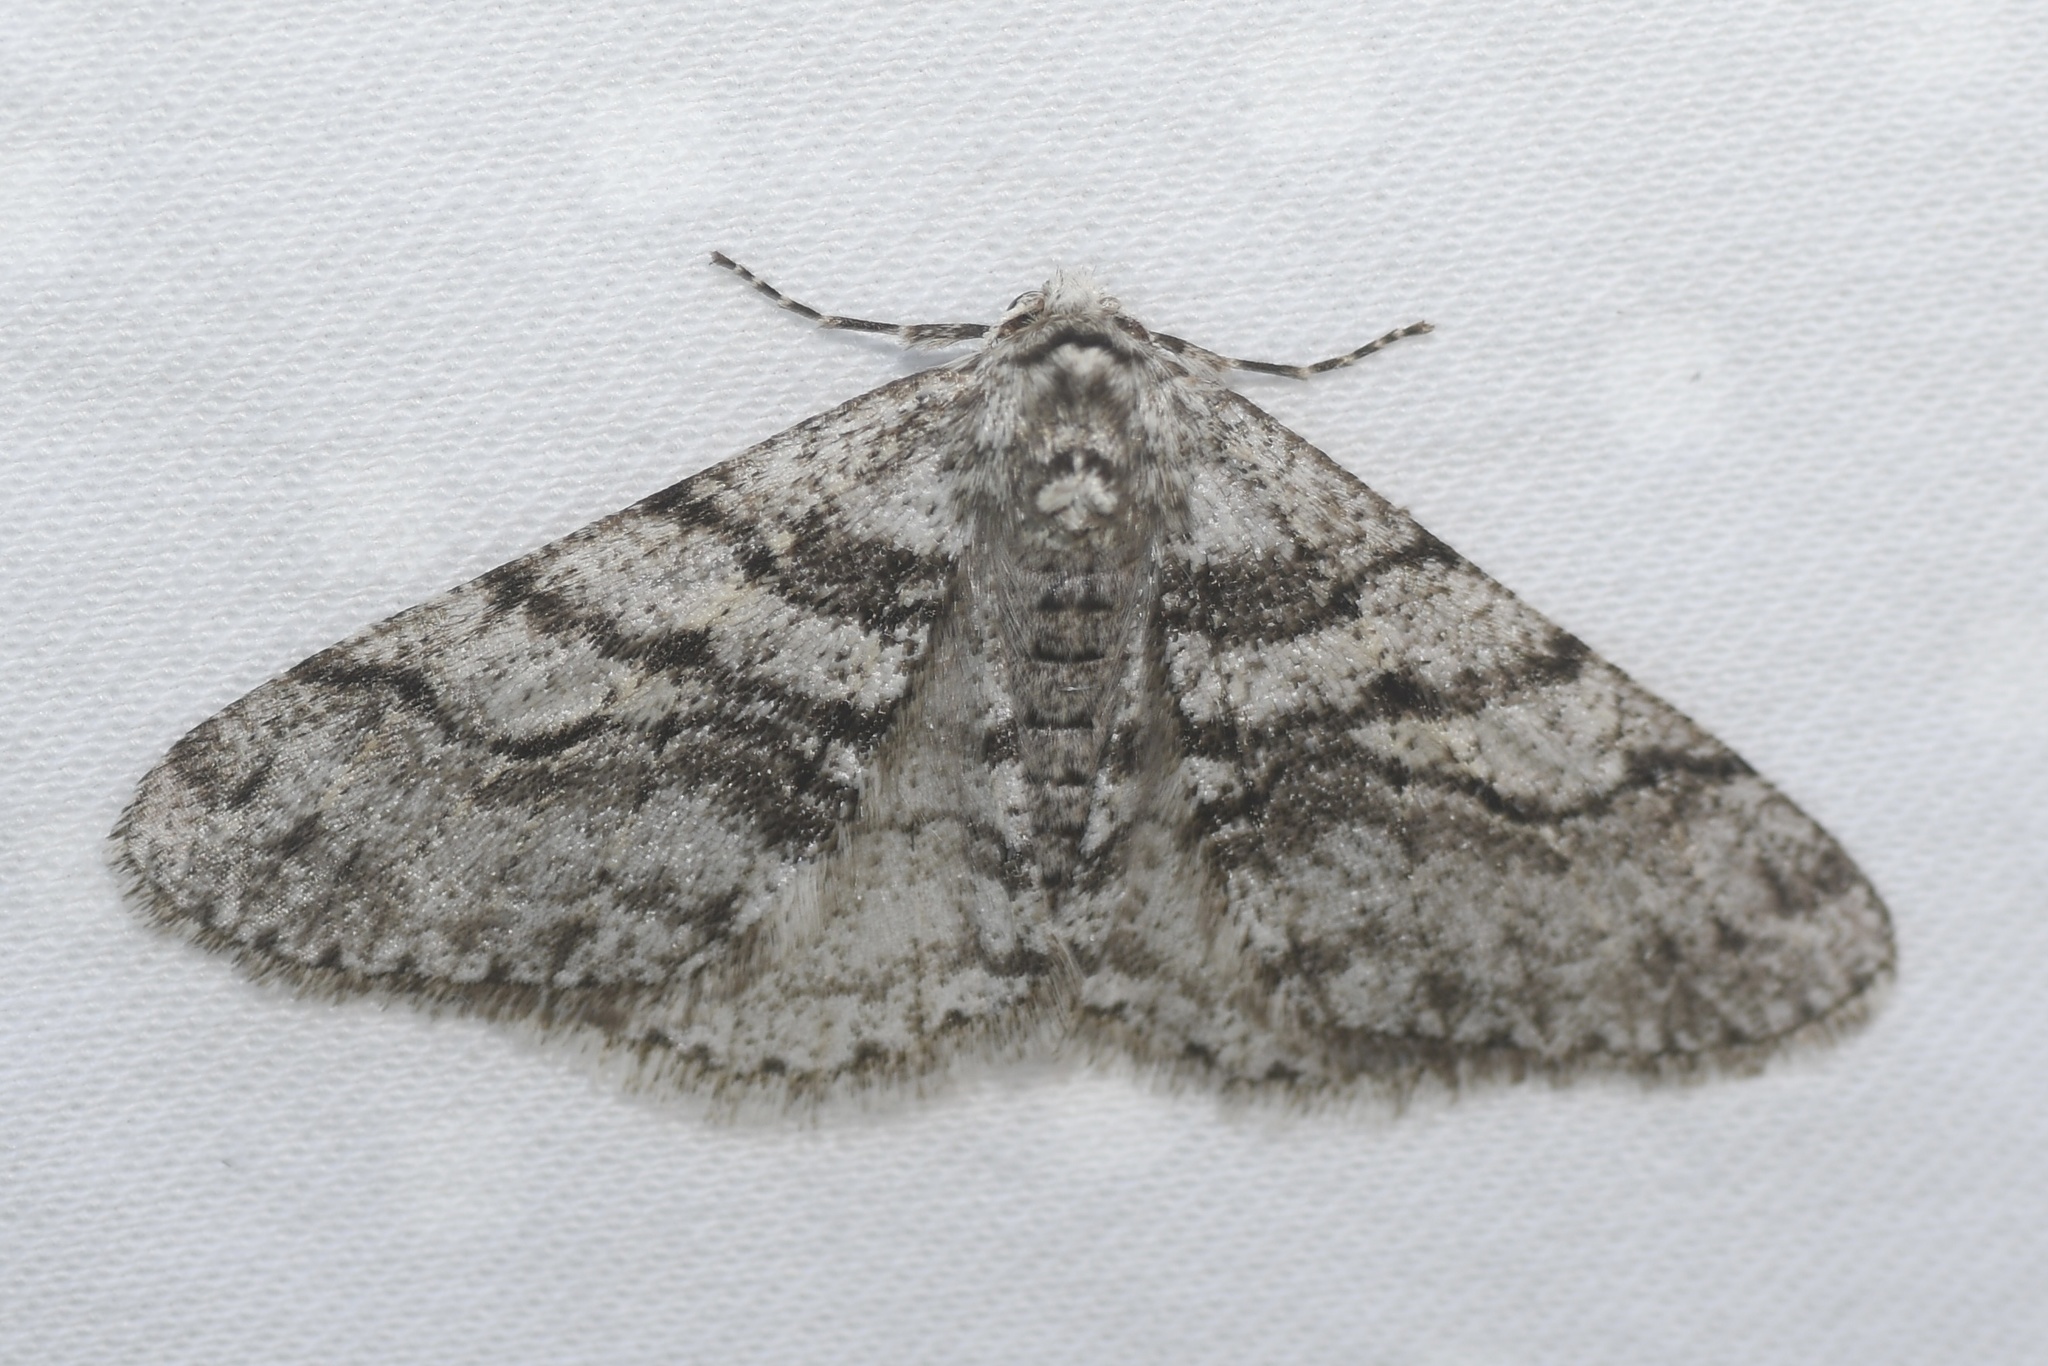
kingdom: Animalia
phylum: Arthropoda
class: Insecta
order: Lepidoptera
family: Geometridae
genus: Phigalia
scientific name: Phigalia titea
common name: Spiny looper
